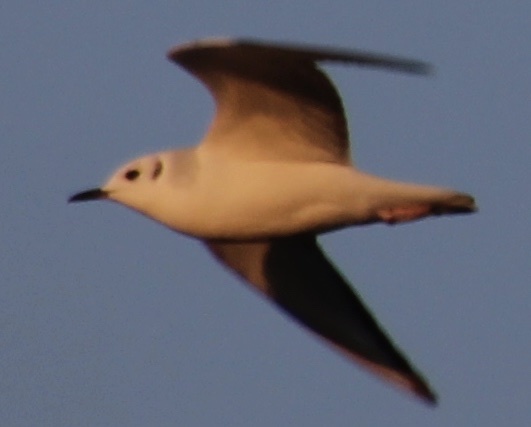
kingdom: Animalia
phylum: Chordata
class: Aves
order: Charadriiformes
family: Laridae
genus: Chroicocephalus
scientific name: Chroicocephalus philadelphia
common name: Bonaparte's gull
